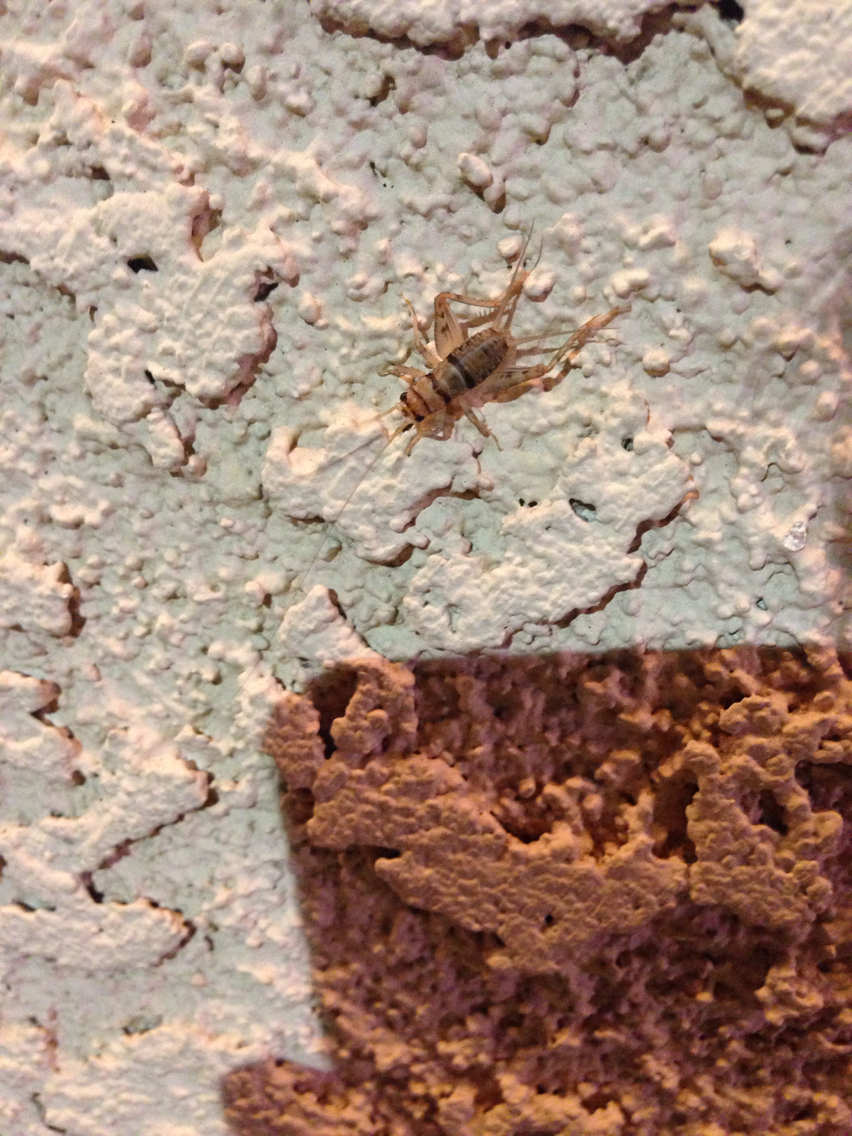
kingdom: Animalia
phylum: Arthropoda
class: Insecta
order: Orthoptera
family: Gryllidae
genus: Gryllodes
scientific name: Gryllodes sigillatus
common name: Tropical house cricket
